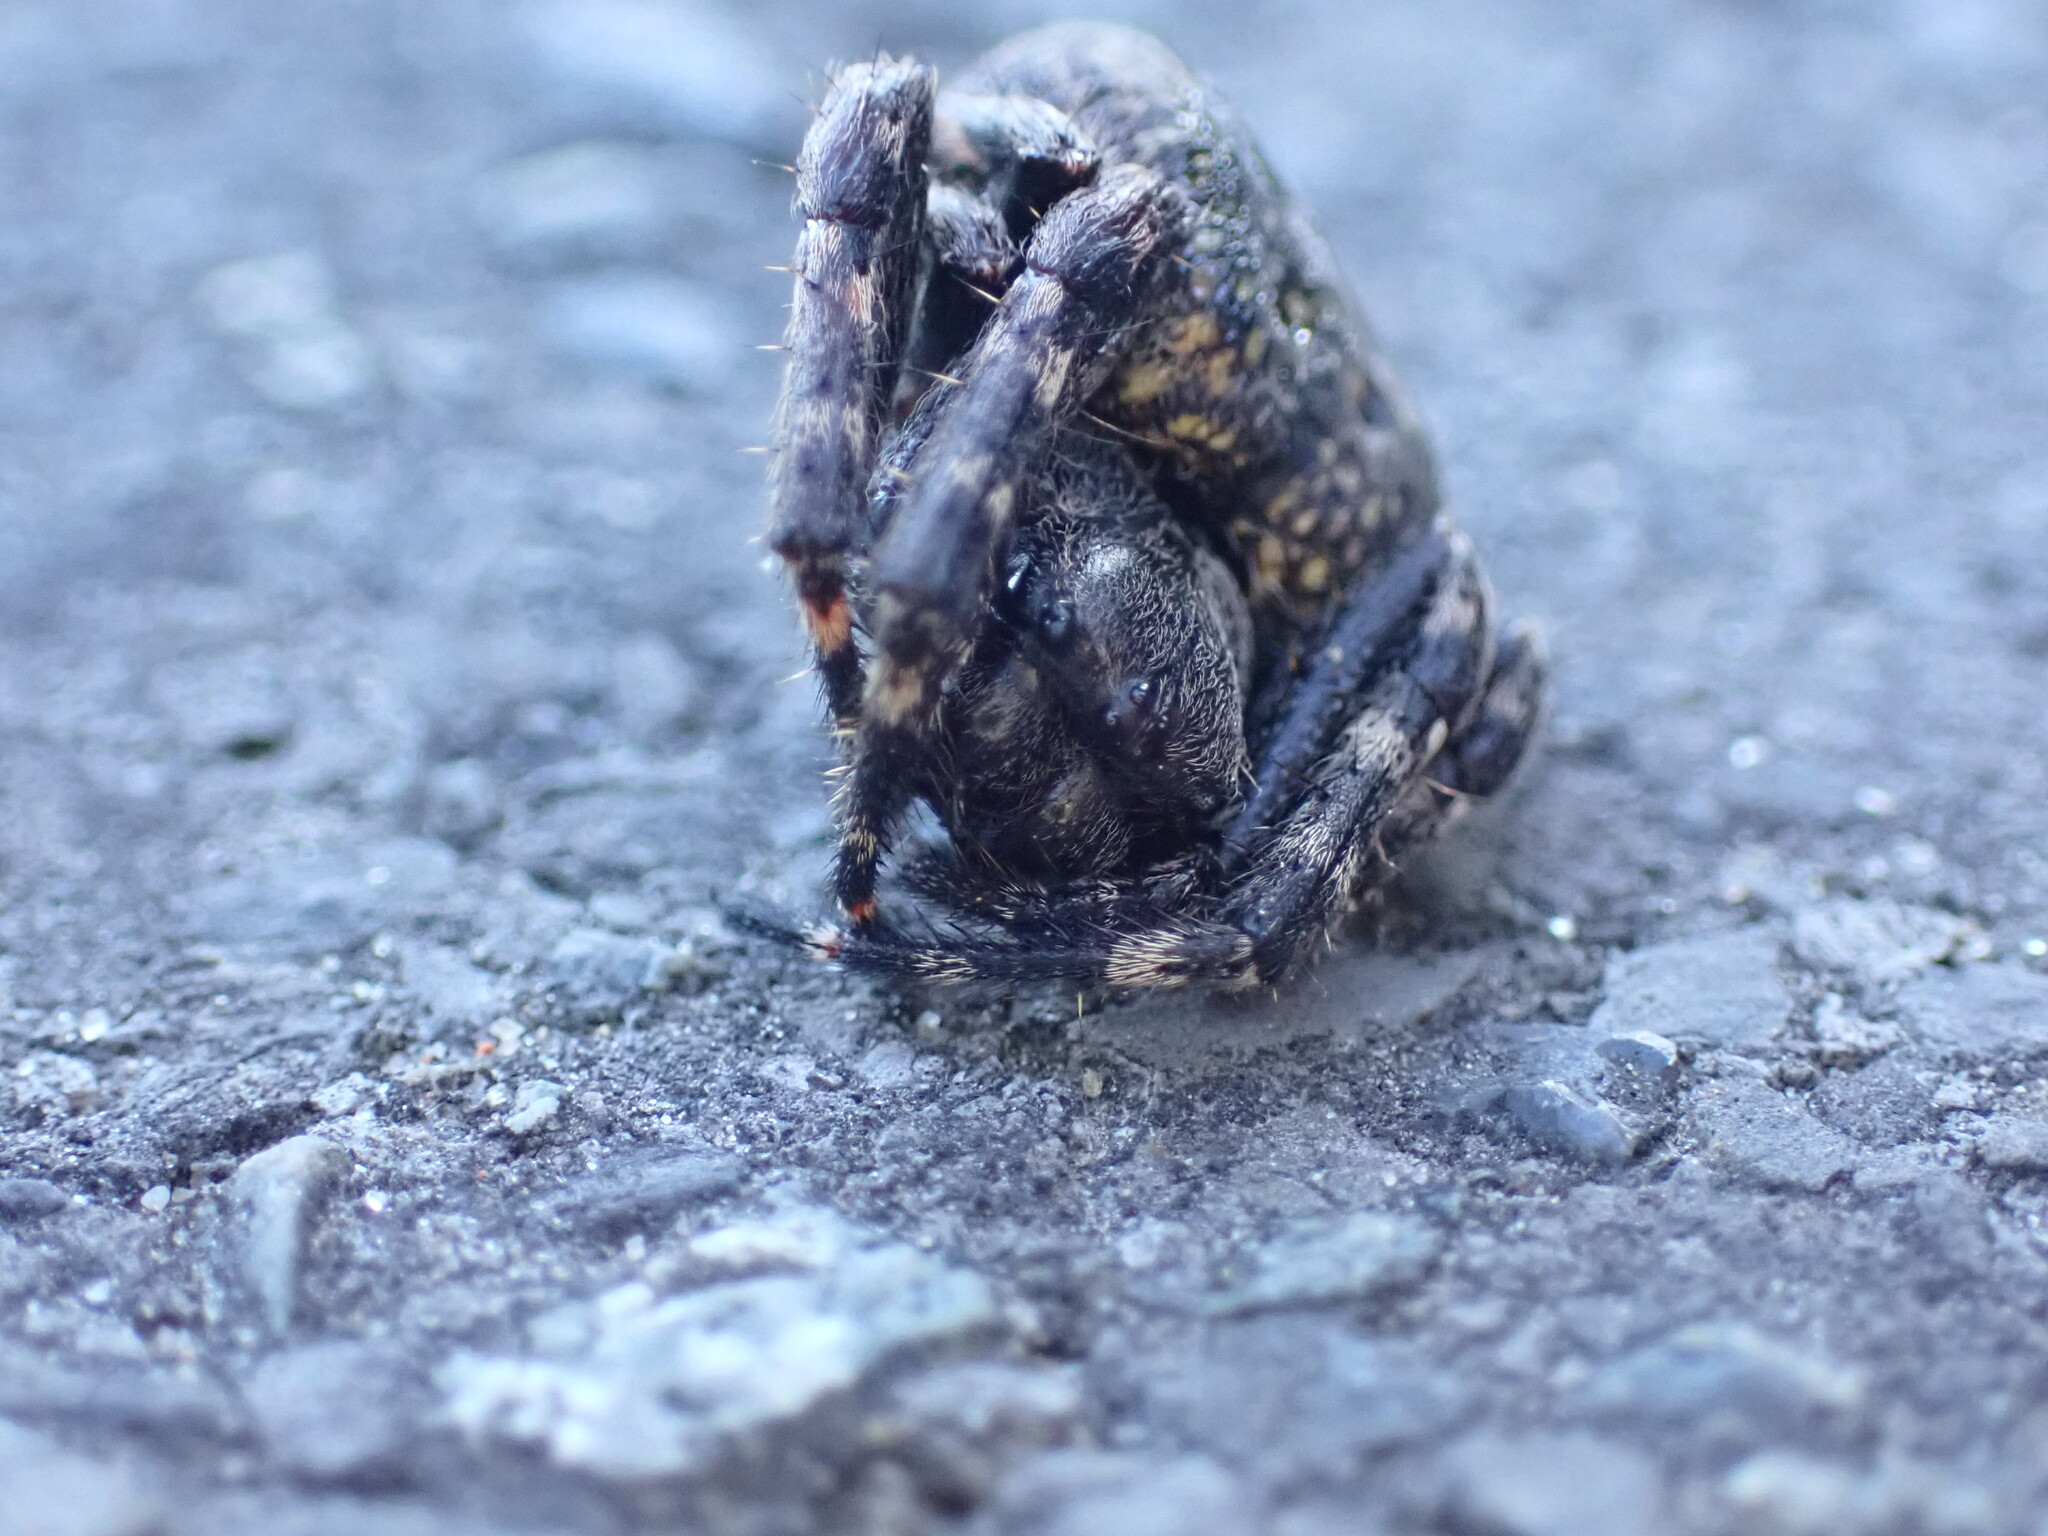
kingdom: Animalia
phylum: Arthropoda
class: Arachnida
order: Araneae
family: Araneidae
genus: Nuctenea
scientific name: Nuctenea umbratica
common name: Toad spider
